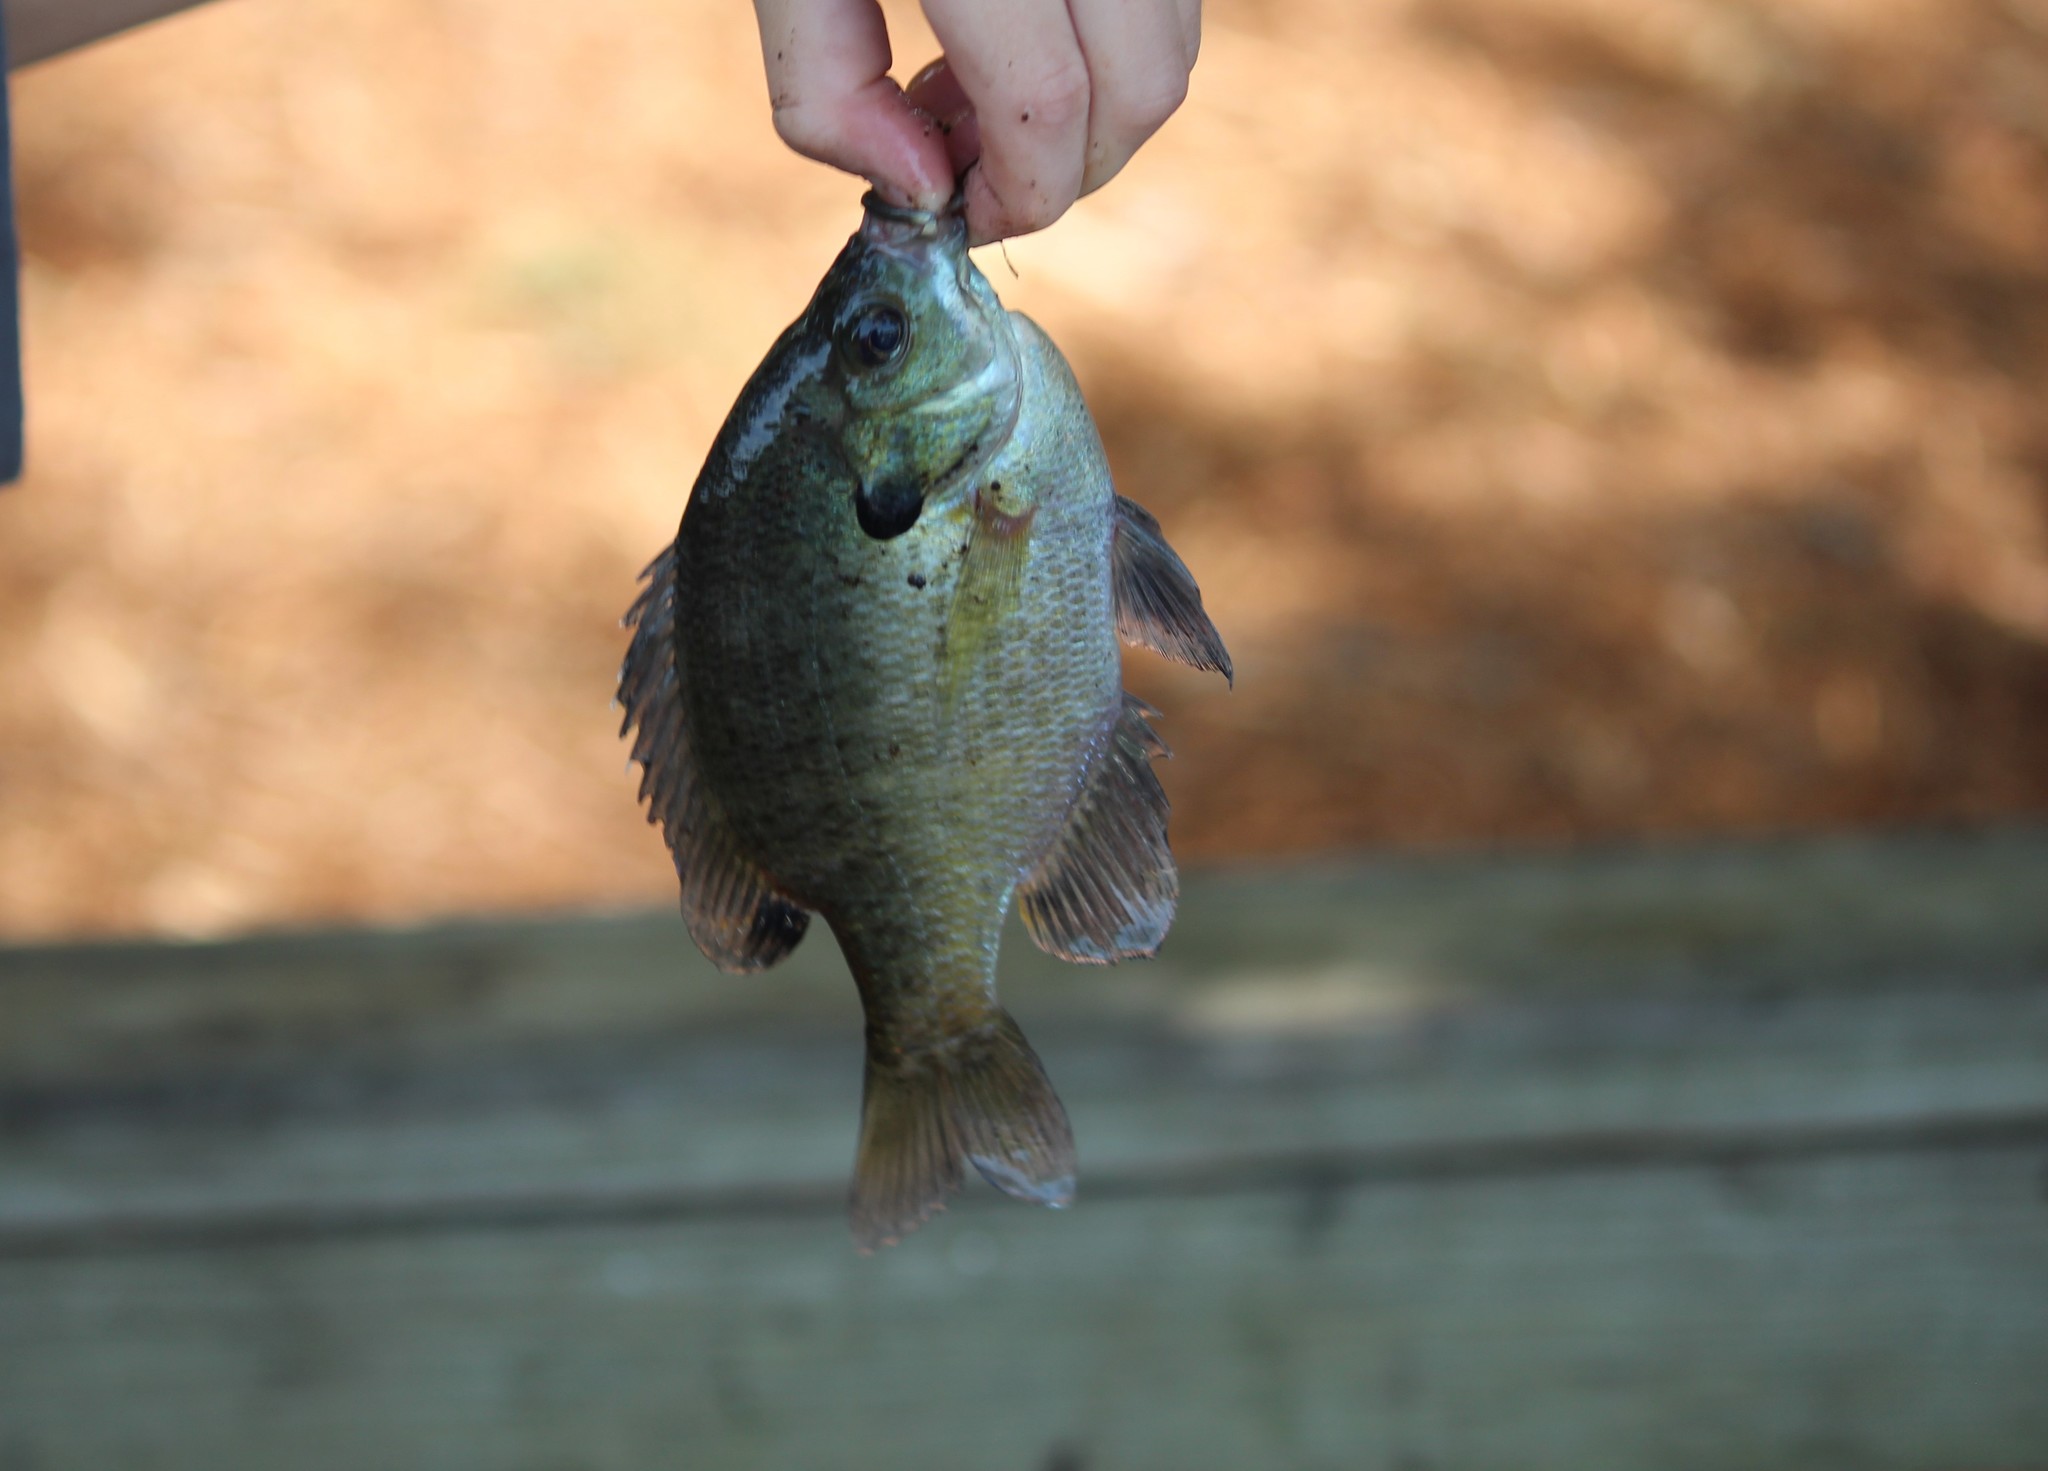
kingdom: Animalia
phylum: Chordata
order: Perciformes
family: Centrarchidae
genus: Lepomis
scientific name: Lepomis macrochirus
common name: Bluegill
